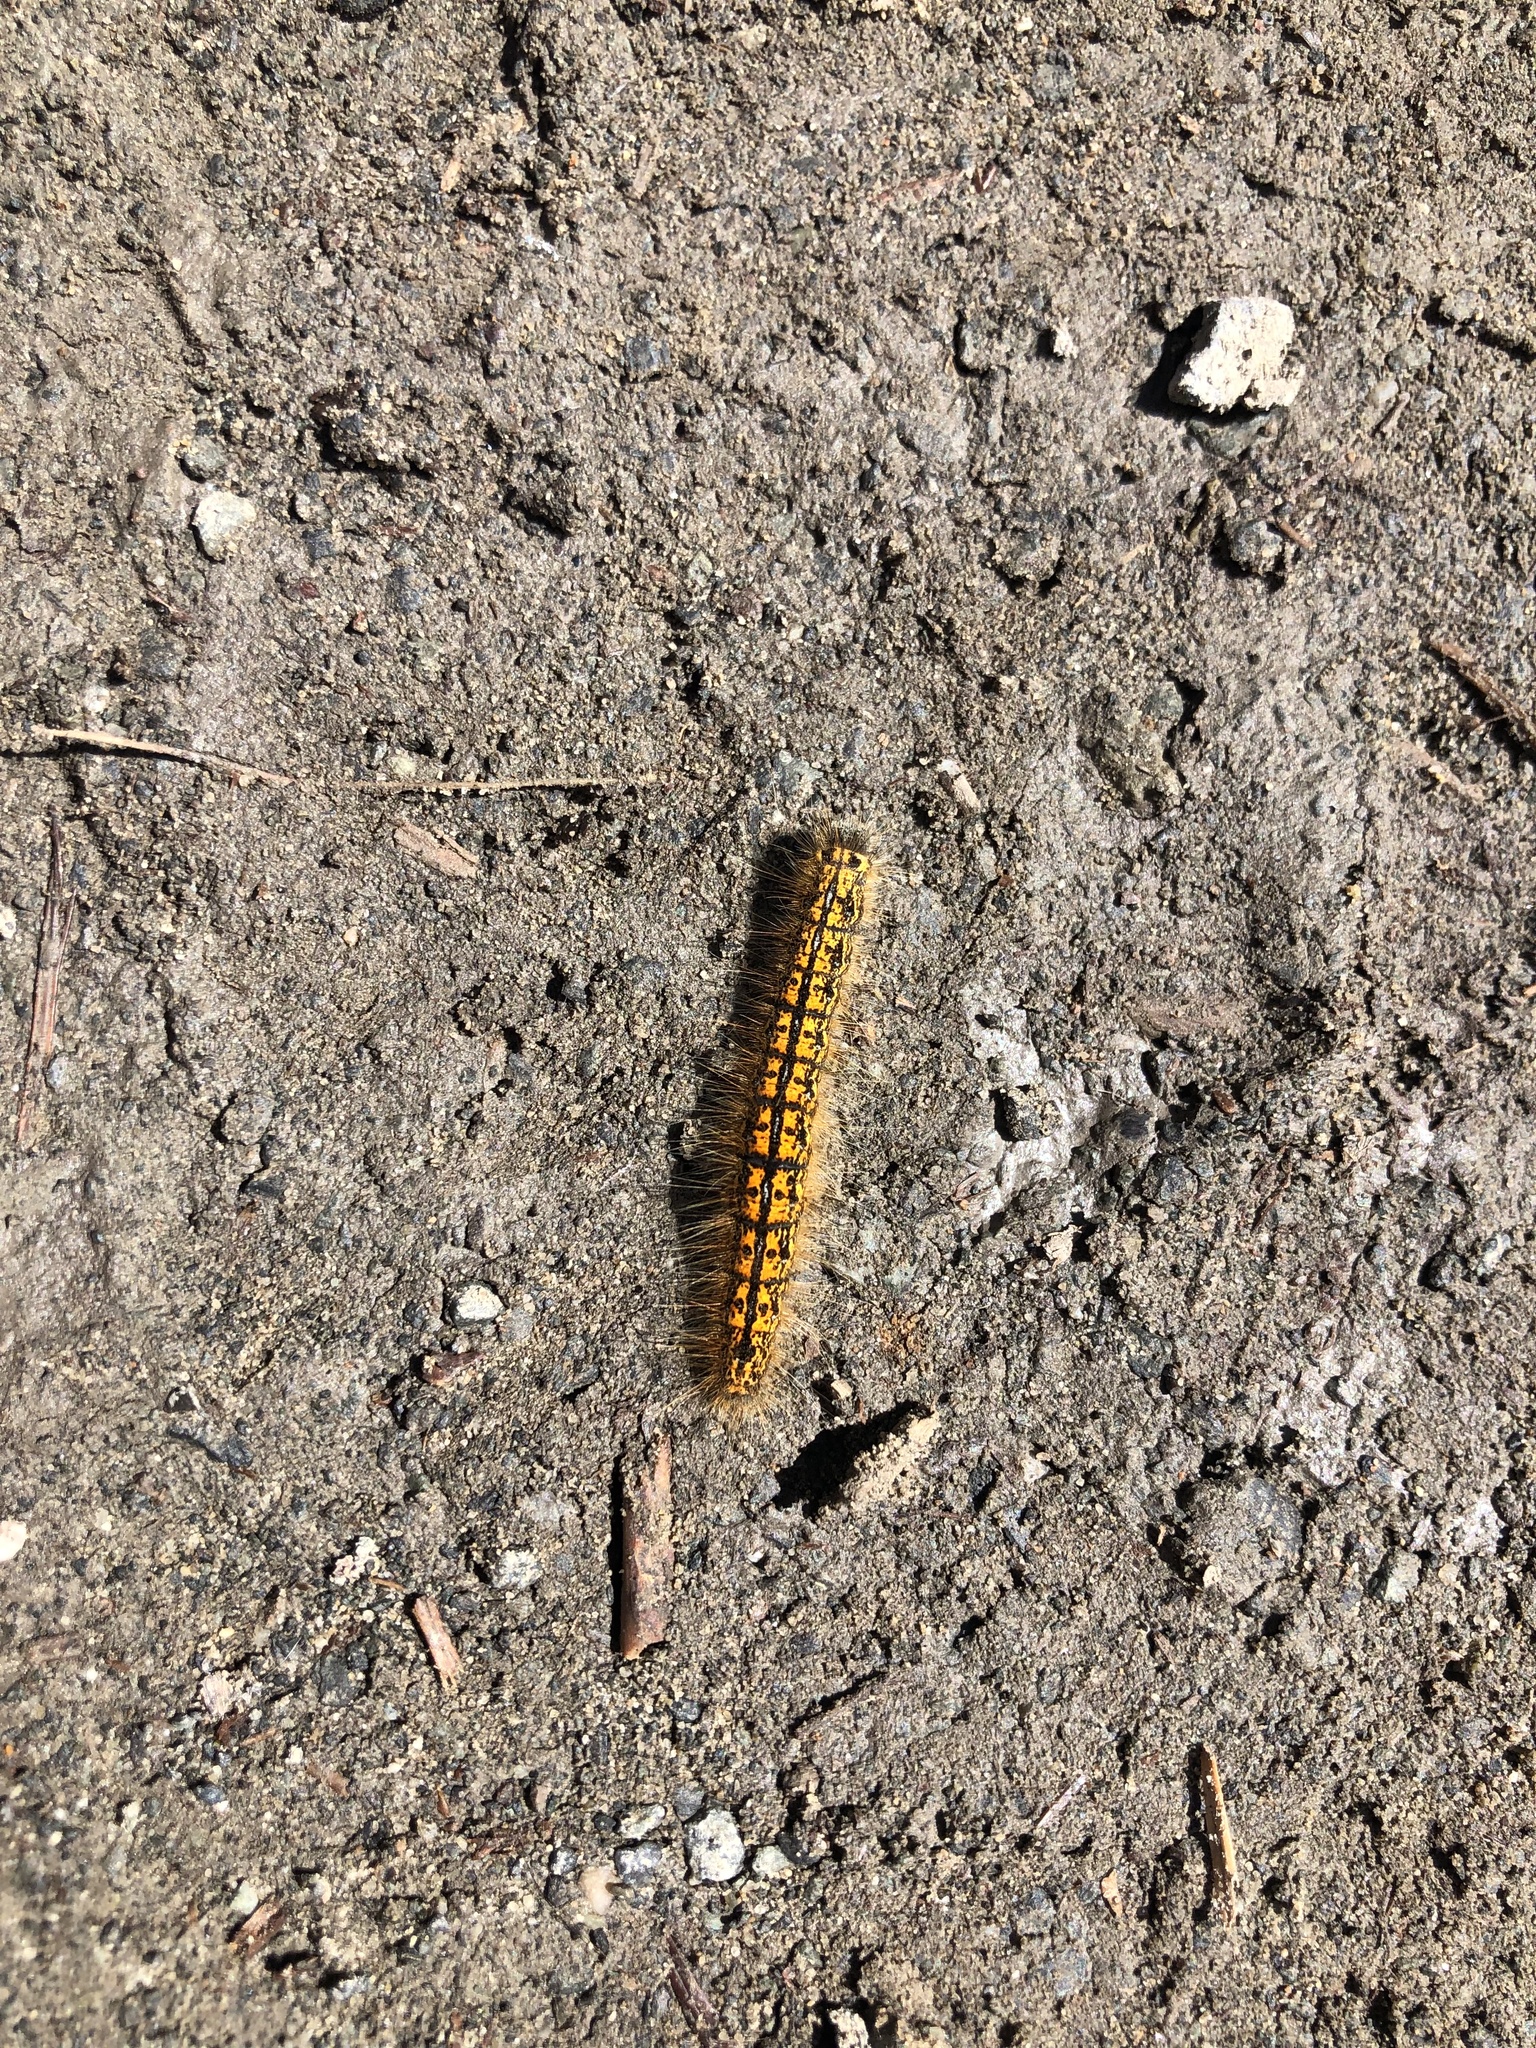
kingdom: Animalia
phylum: Arthropoda
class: Insecta
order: Lepidoptera
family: Lasiocampidae
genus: Malacosoma
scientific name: Malacosoma californica
